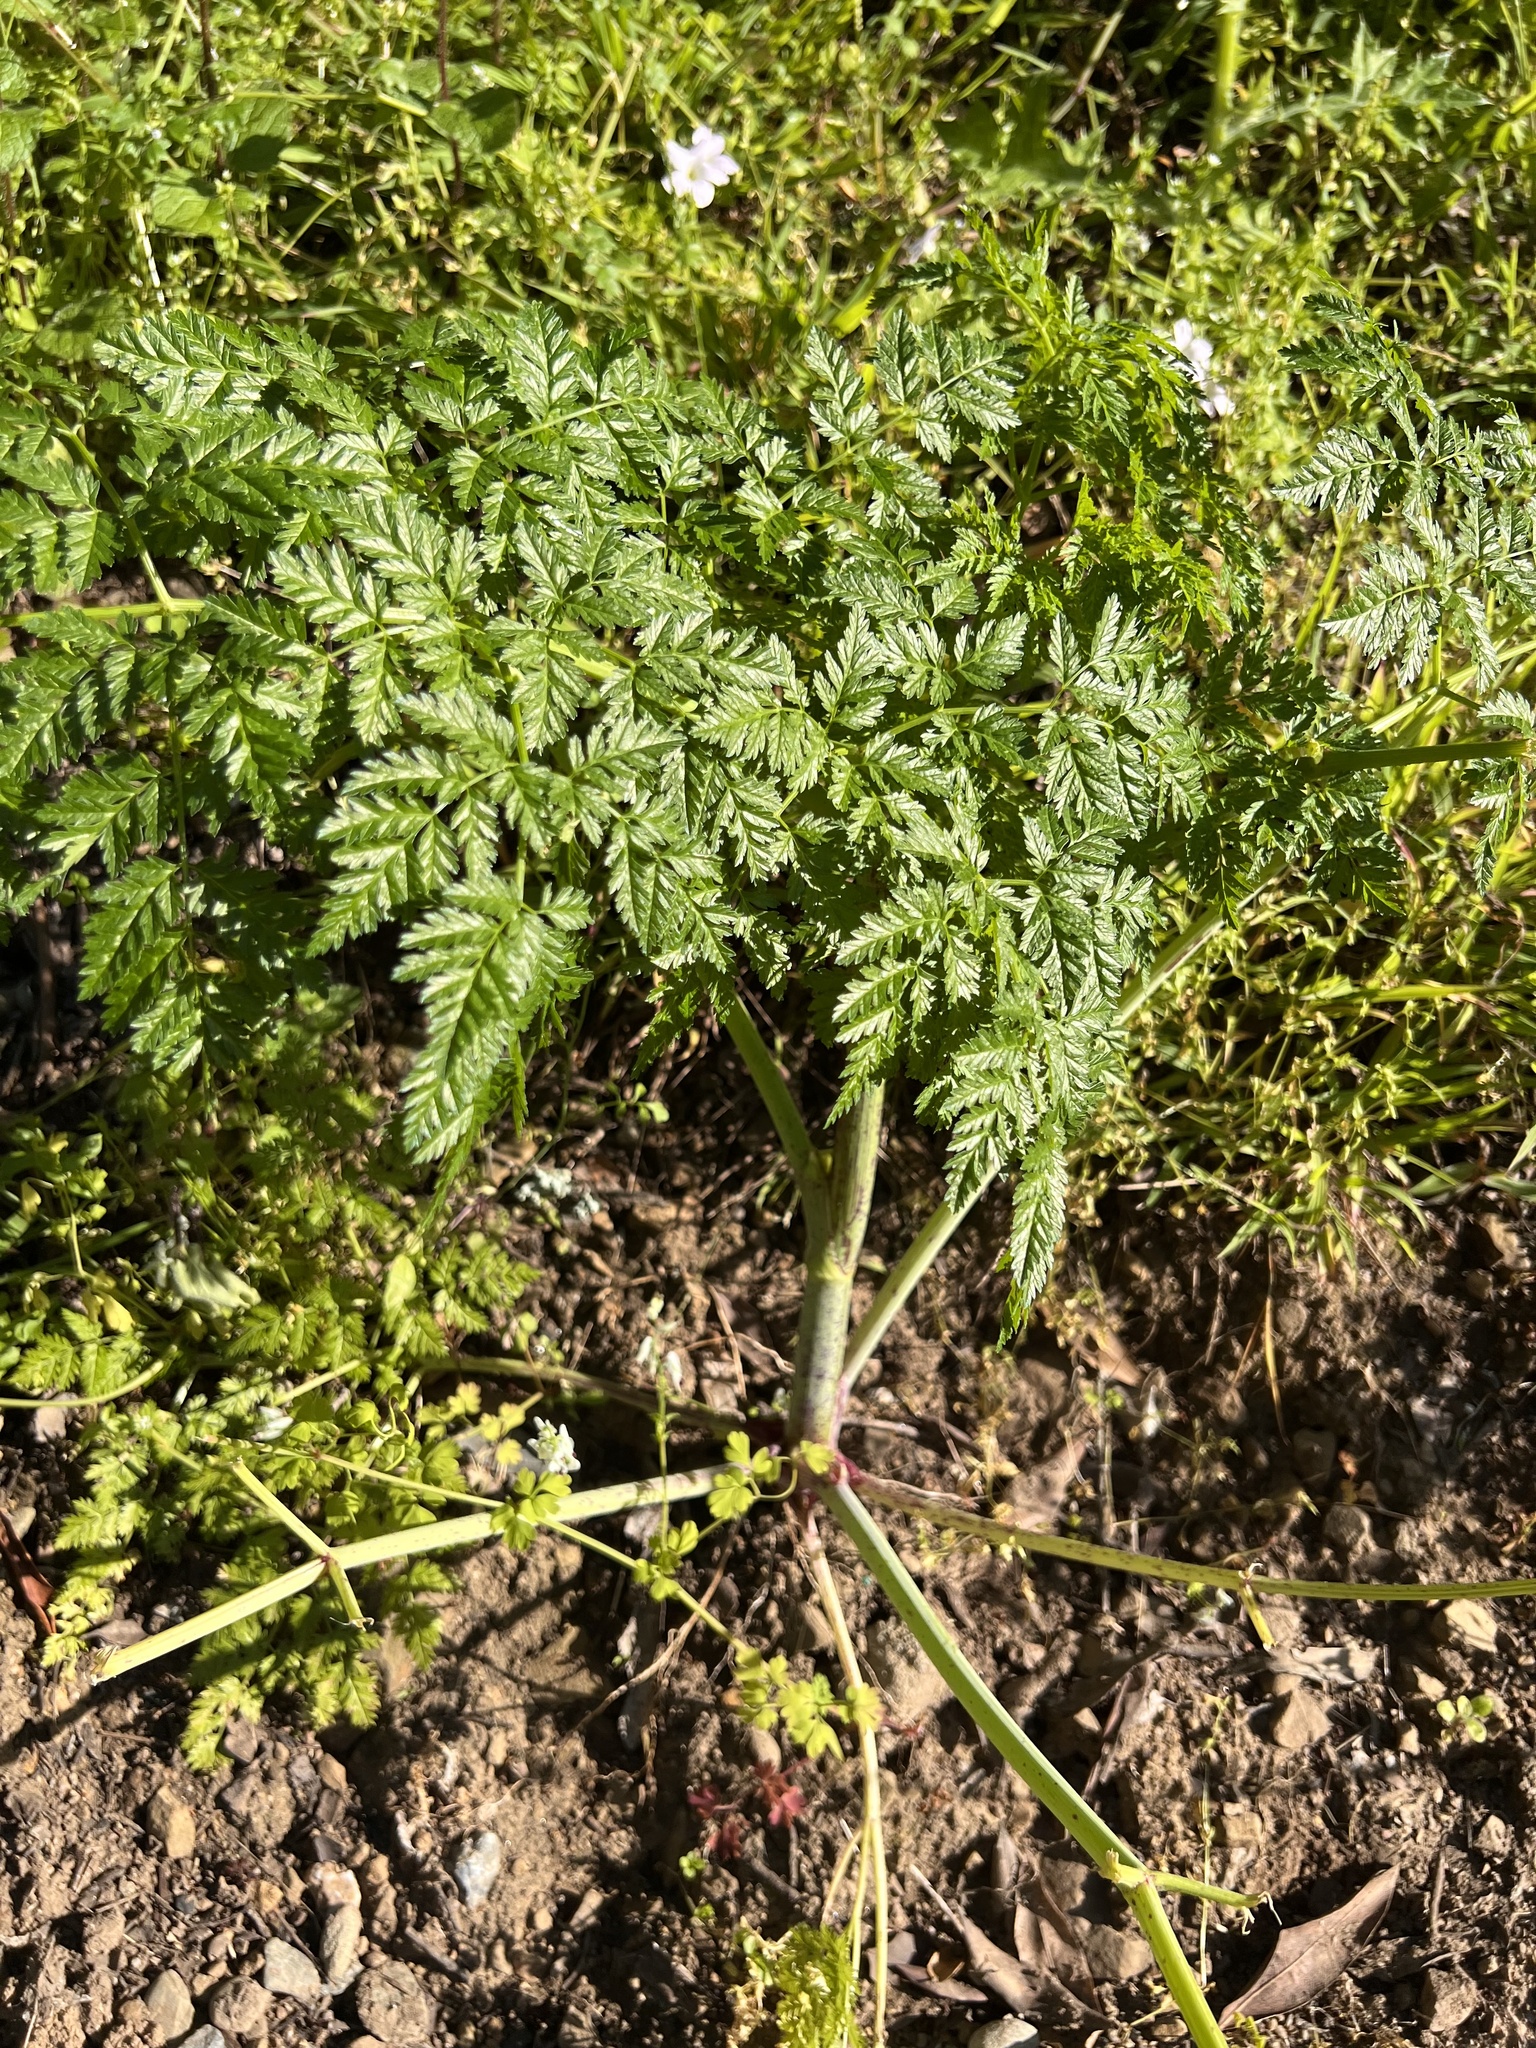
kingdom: Plantae
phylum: Tracheophyta
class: Magnoliopsida
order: Apiales
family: Apiaceae
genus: Conium
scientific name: Conium maculatum
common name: Hemlock
